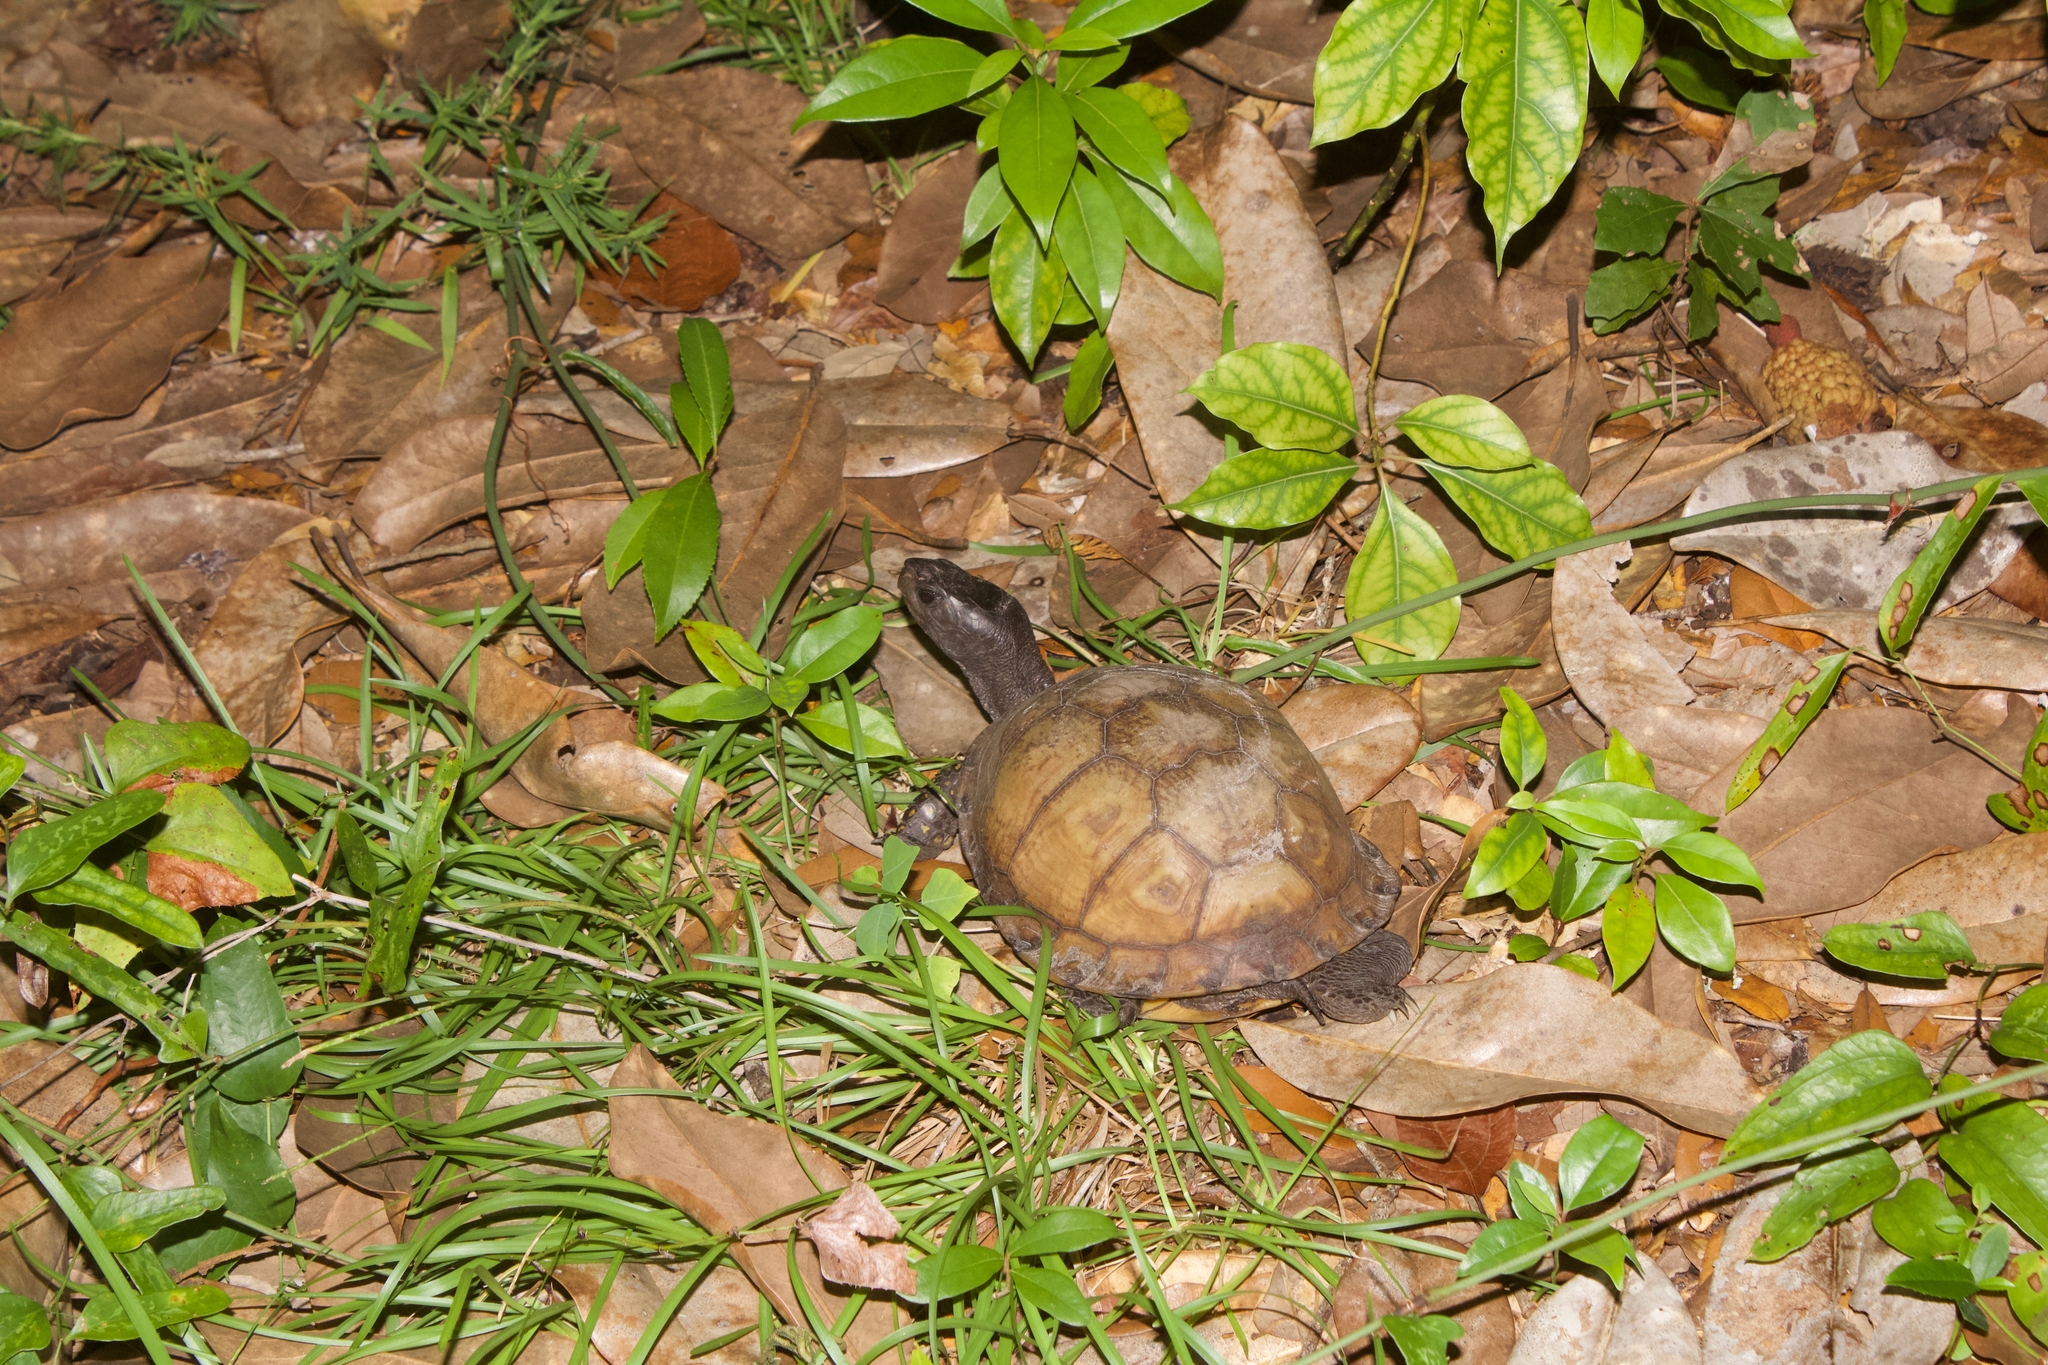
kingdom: Animalia
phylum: Chordata
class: Testudines
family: Emydidae
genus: Terrapene
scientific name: Terrapene carolina
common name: Common box turtle
